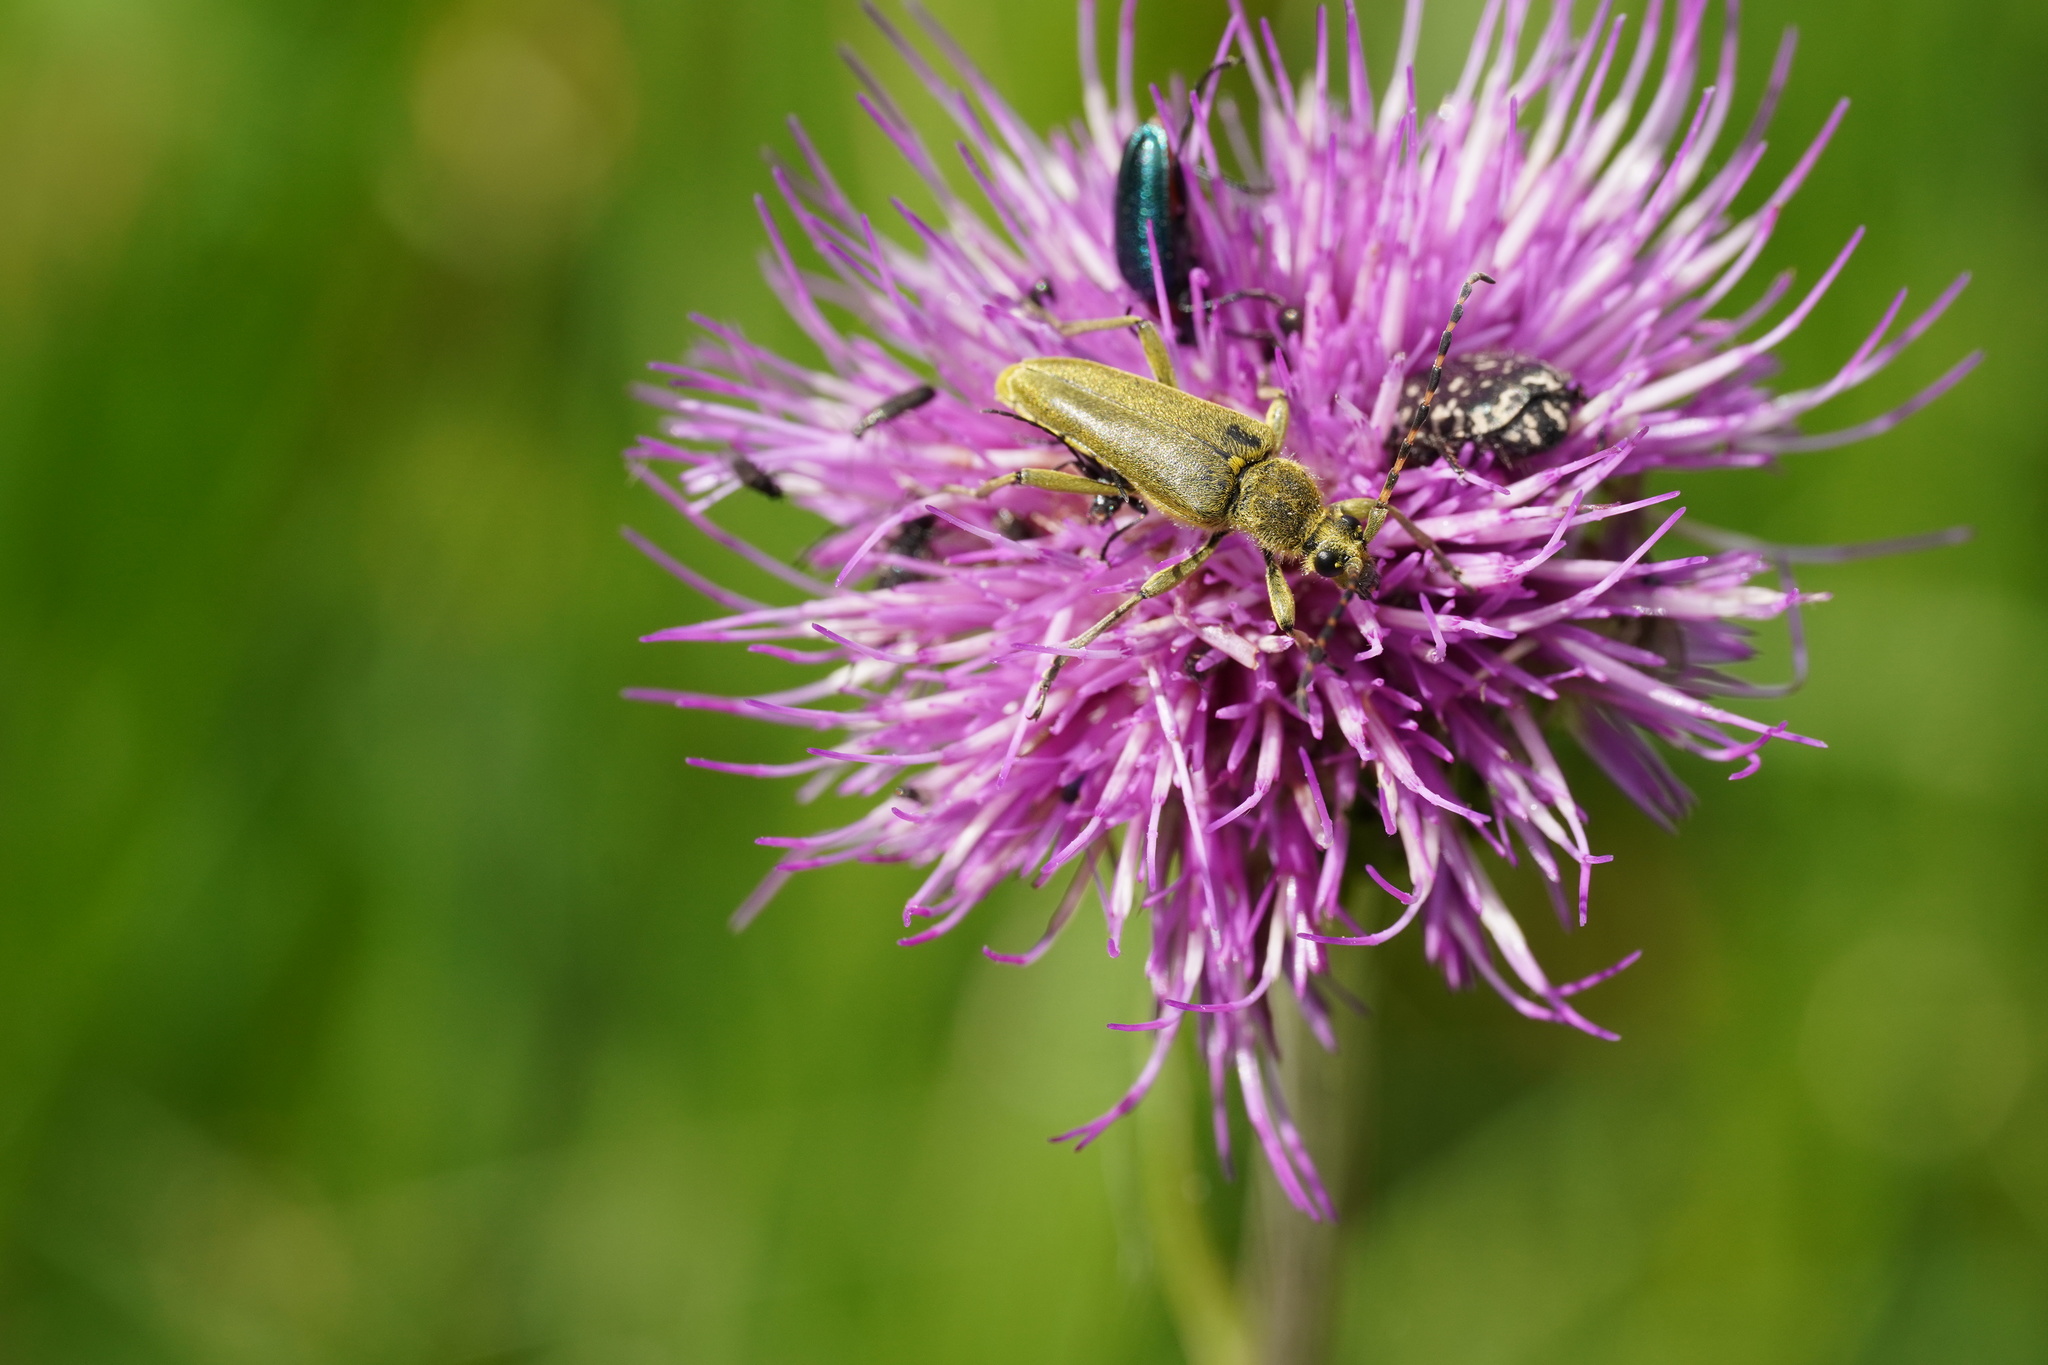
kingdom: Animalia
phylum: Arthropoda
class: Insecta
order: Coleoptera
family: Cerambycidae
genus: Lepturobosca
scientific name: Lepturobosca virens
